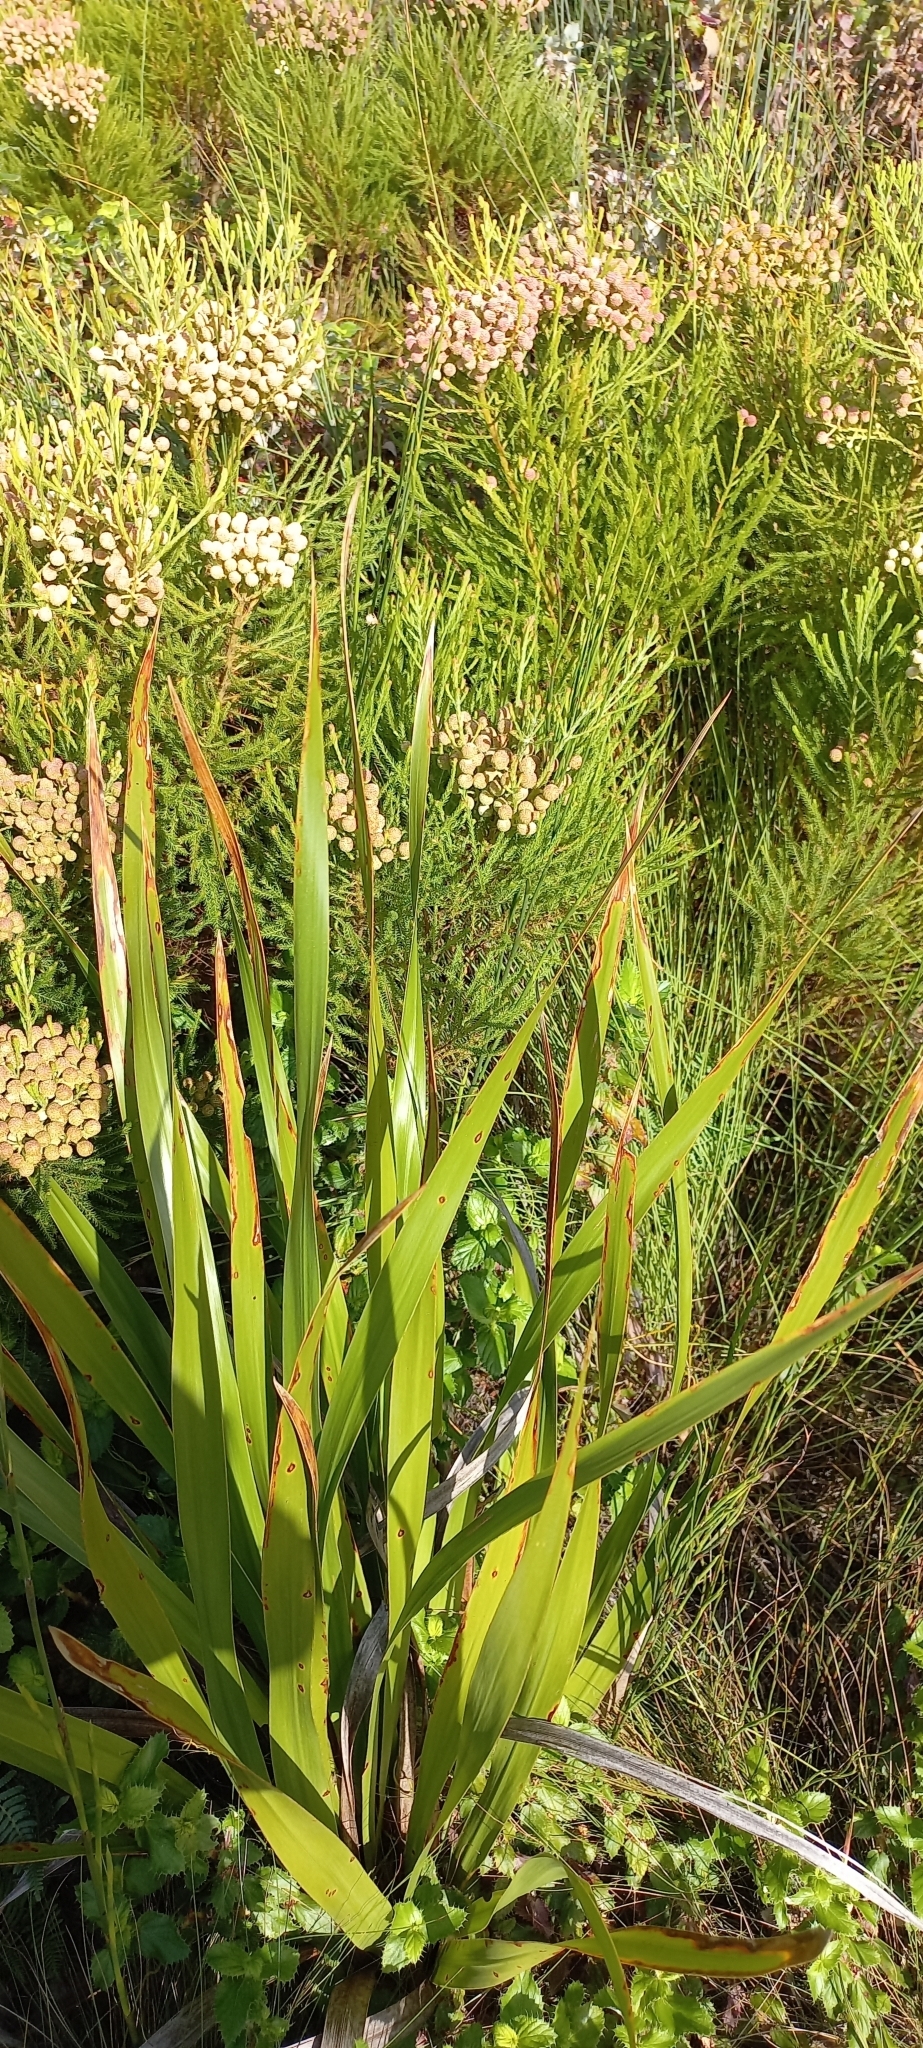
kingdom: Plantae
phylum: Tracheophyta
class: Magnoliopsida
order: Bruniales
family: Bruniaceae
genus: Berzelia
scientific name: Berzelia lanuginosa
